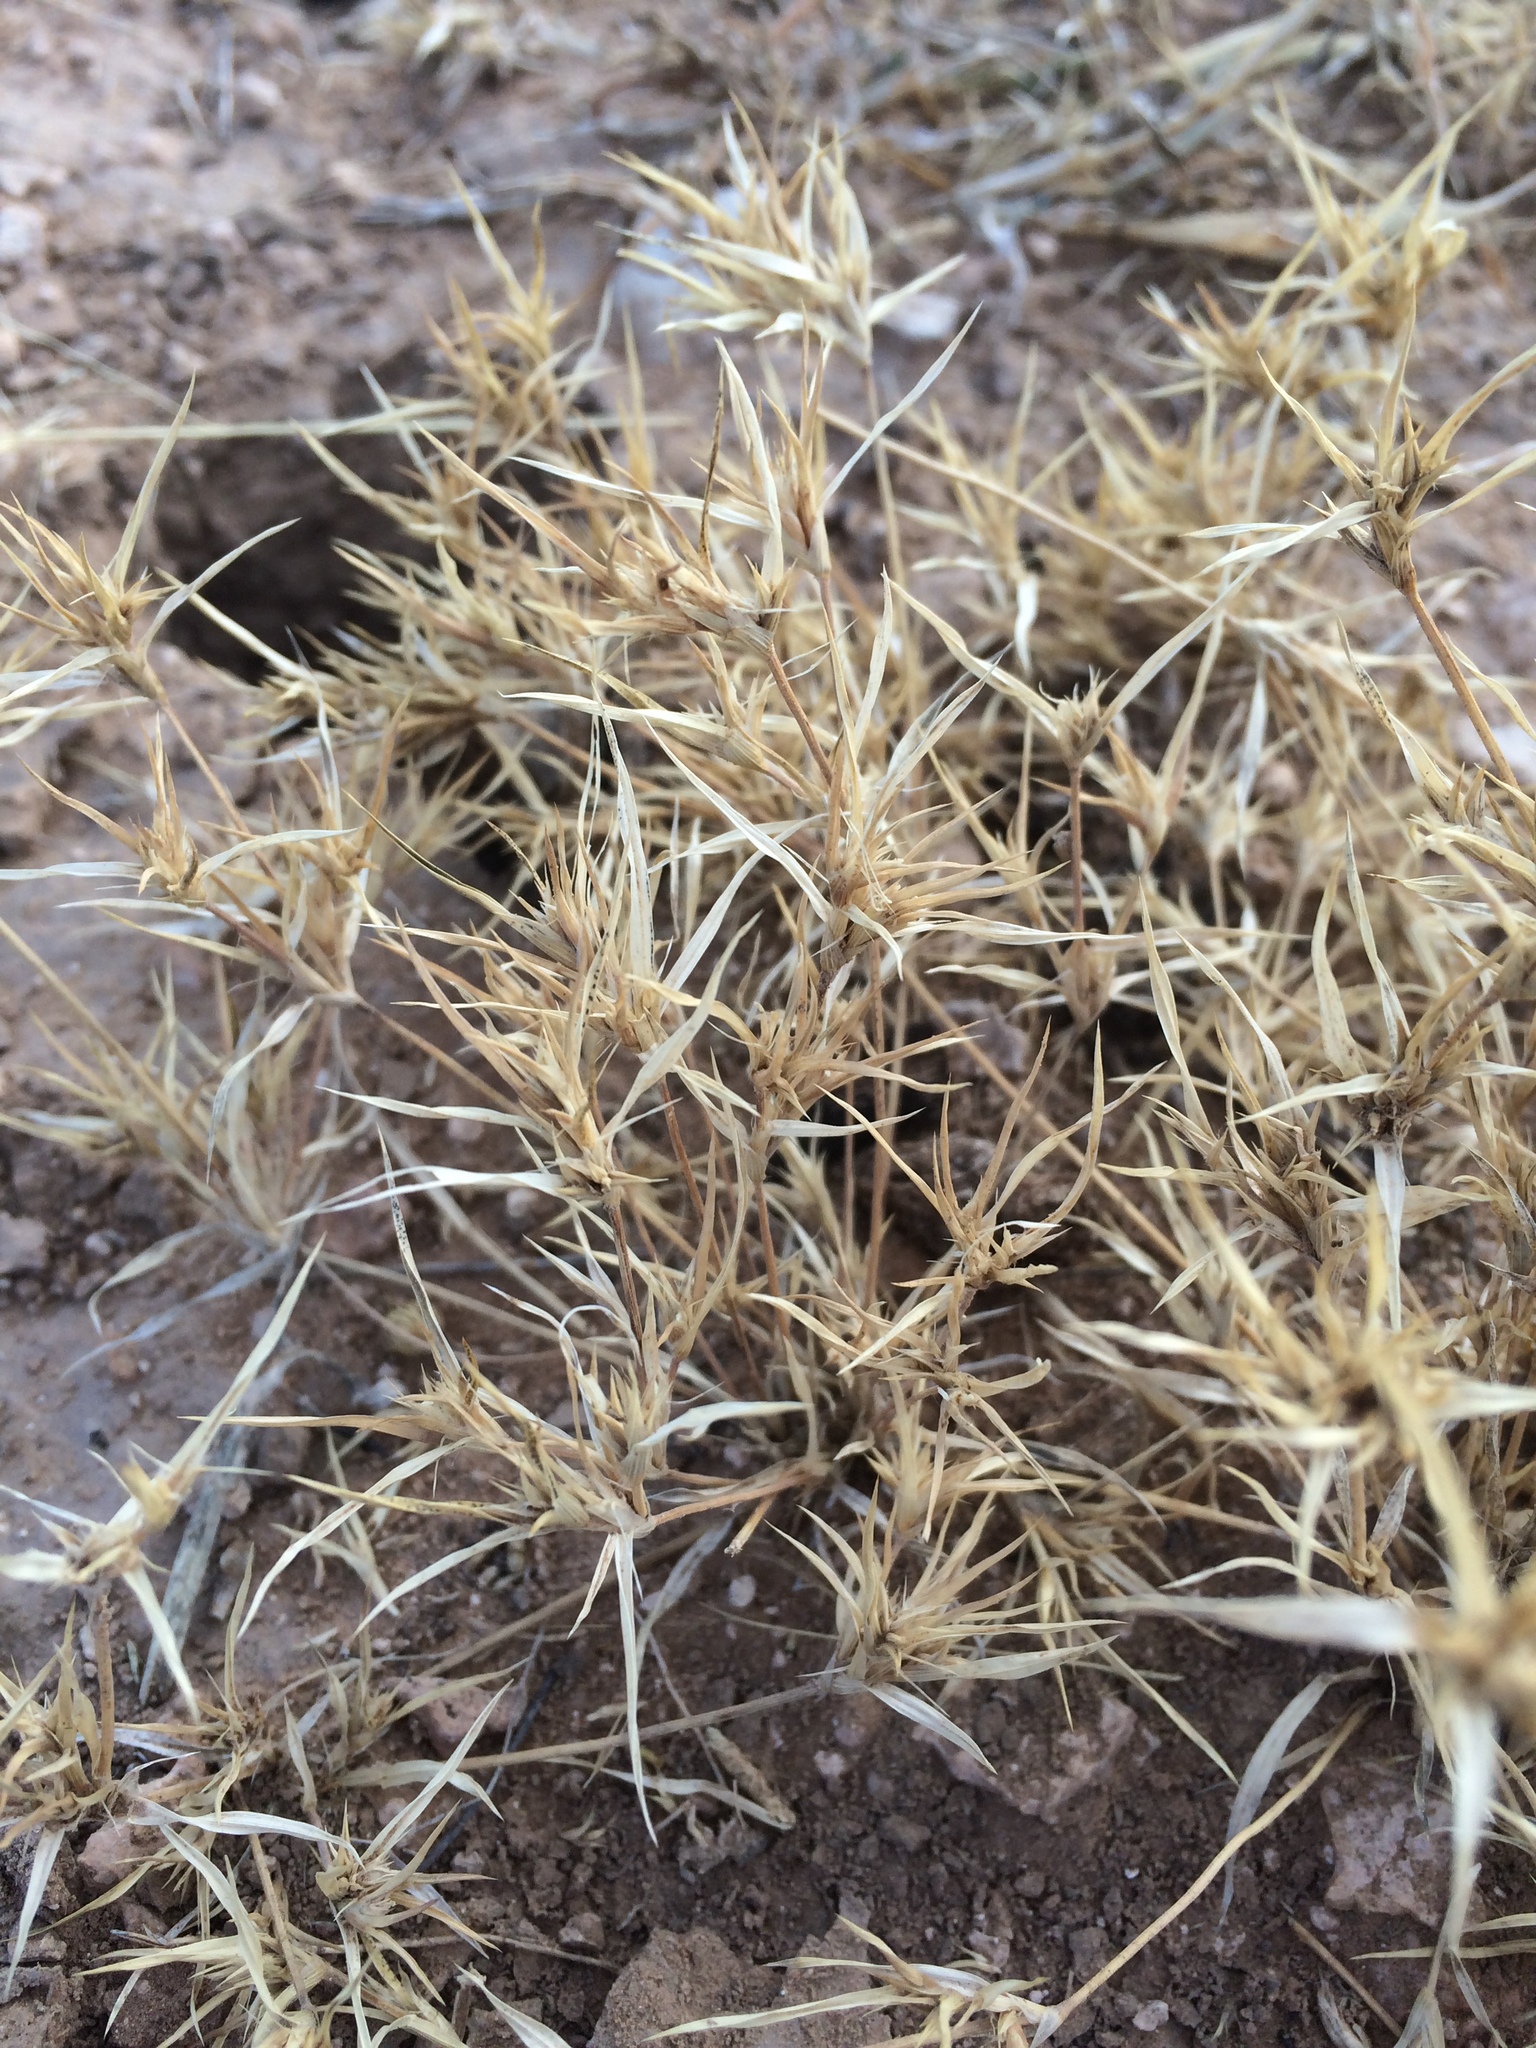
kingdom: Plantae
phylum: Tracheophyta
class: Liliopsida
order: Poales
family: Poaceae
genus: Munroa
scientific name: Munroa squarrosa
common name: False buffalo grass
